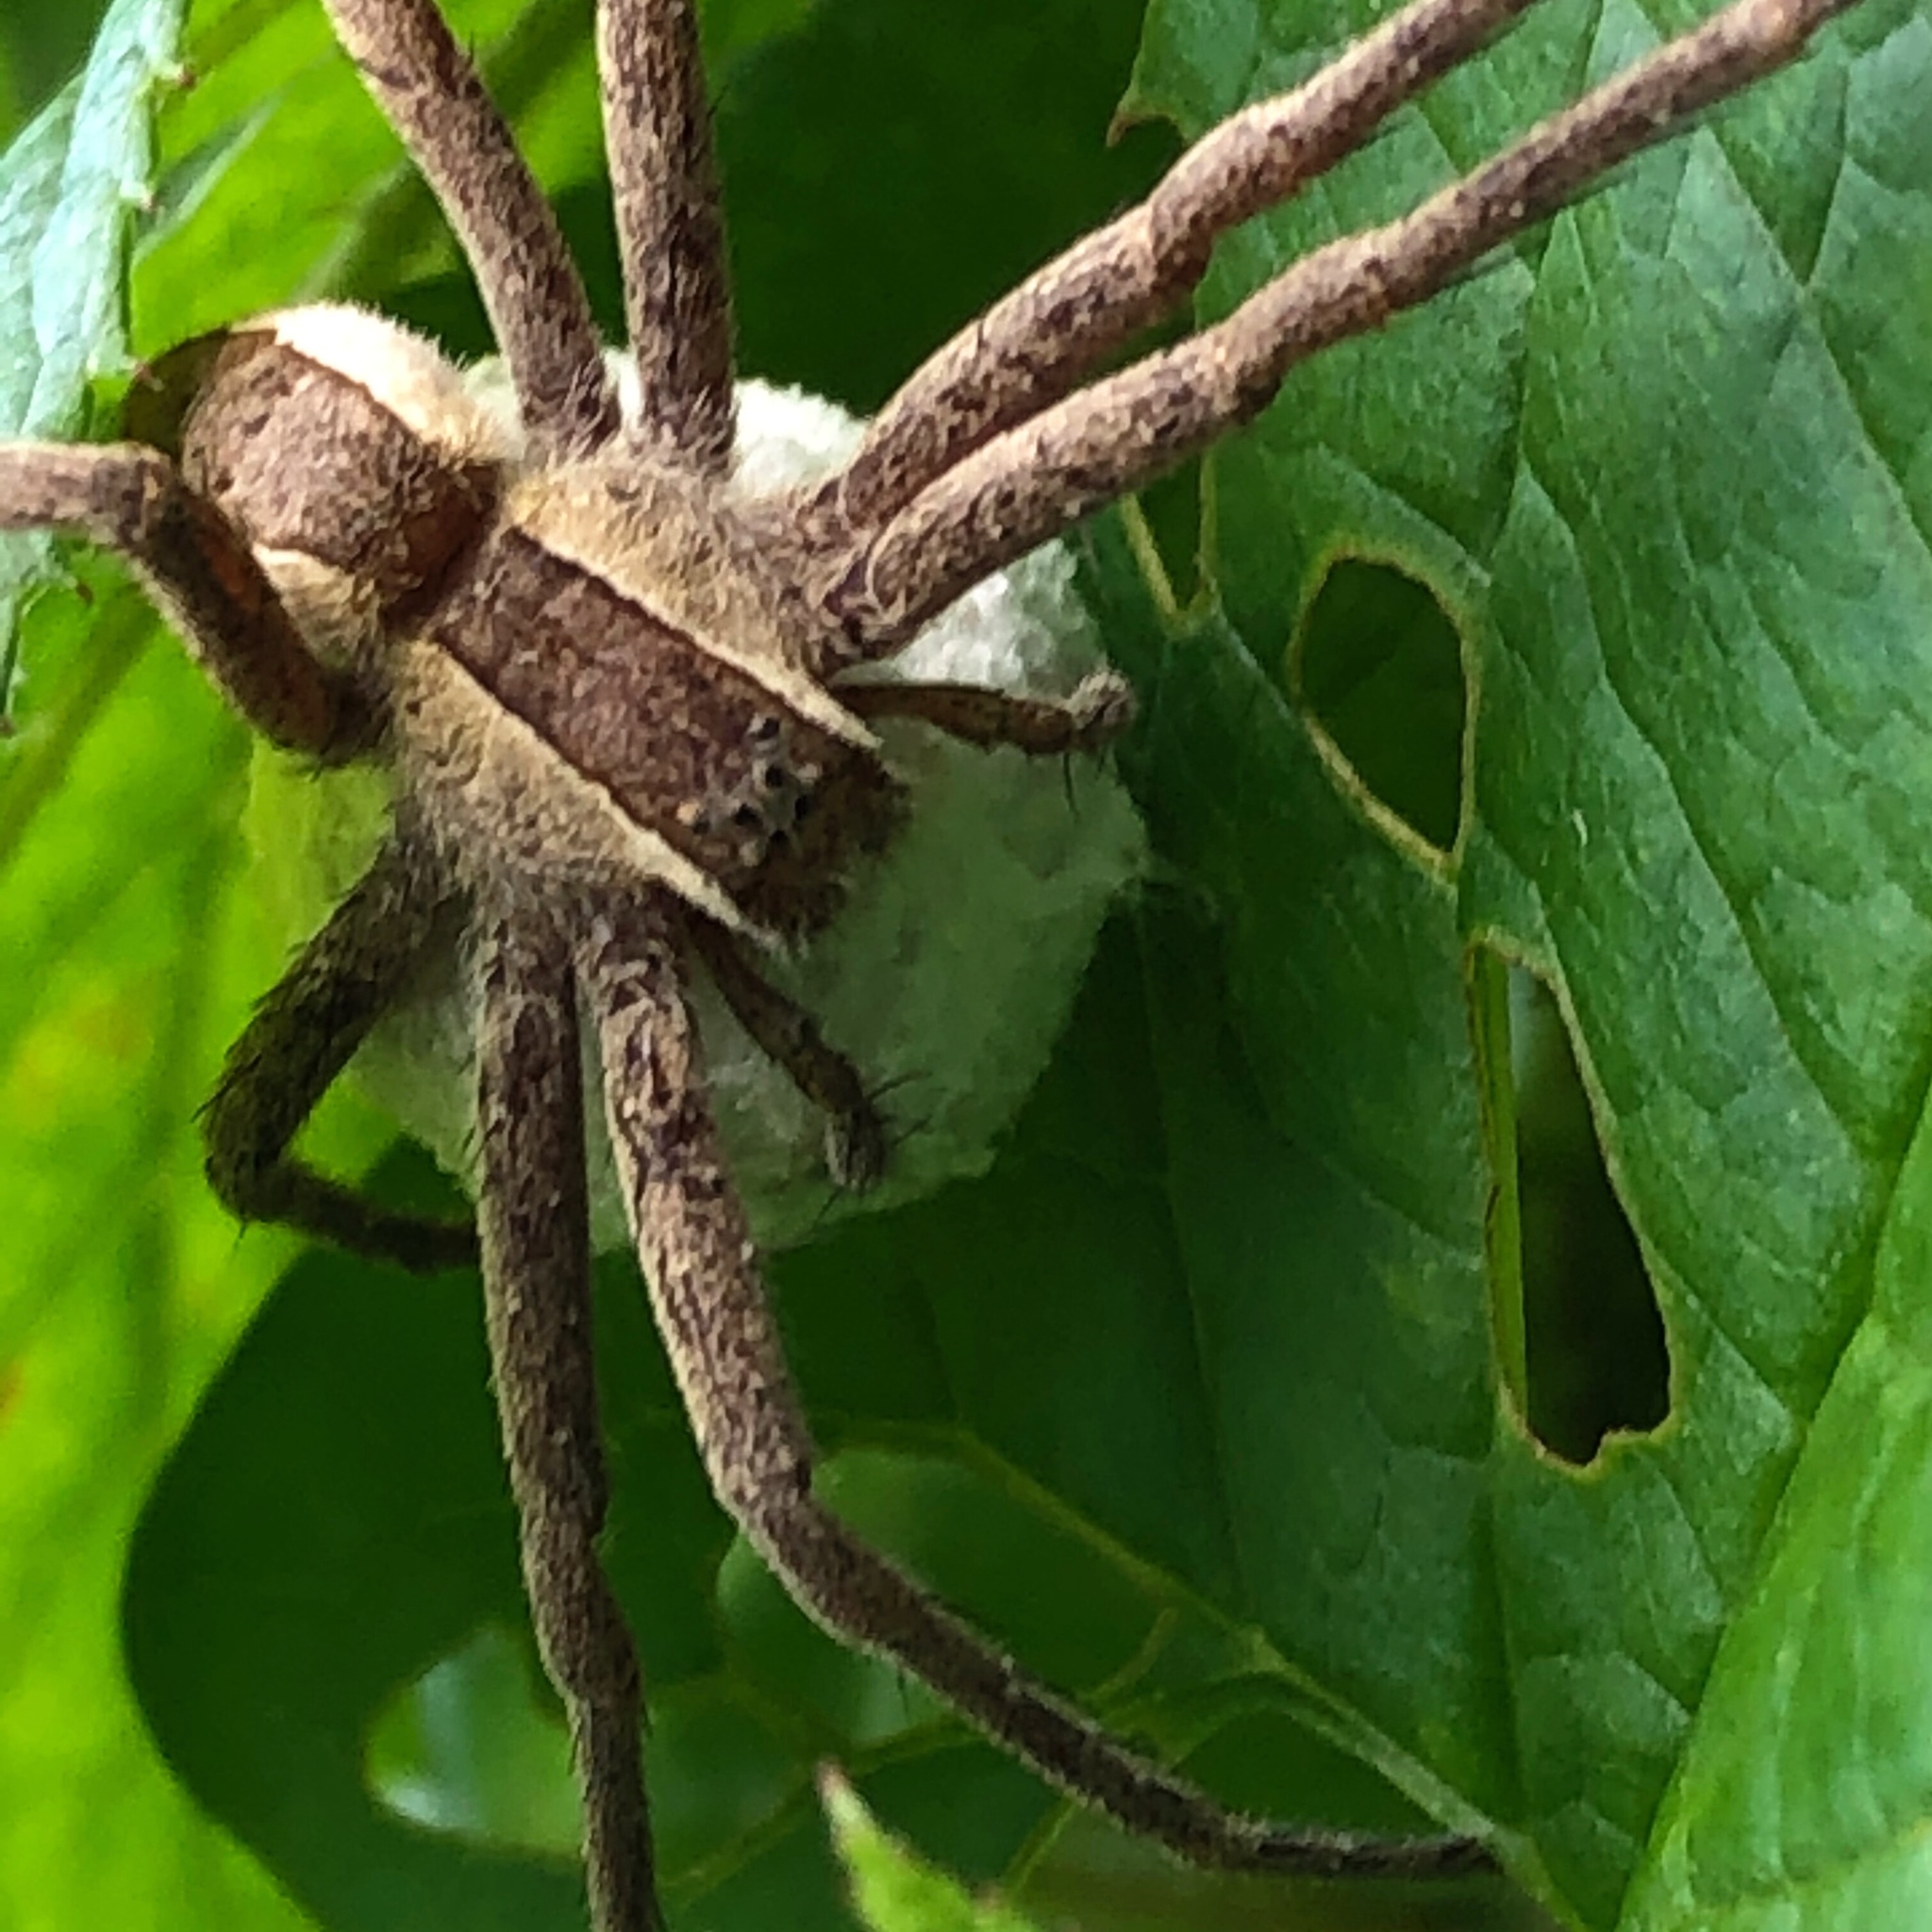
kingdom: Animalia
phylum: Arthropoda
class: Arachnida
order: Araneae
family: Pisauridae
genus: Pisaurina
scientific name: Pisaurina mira
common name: American nursery web spider
